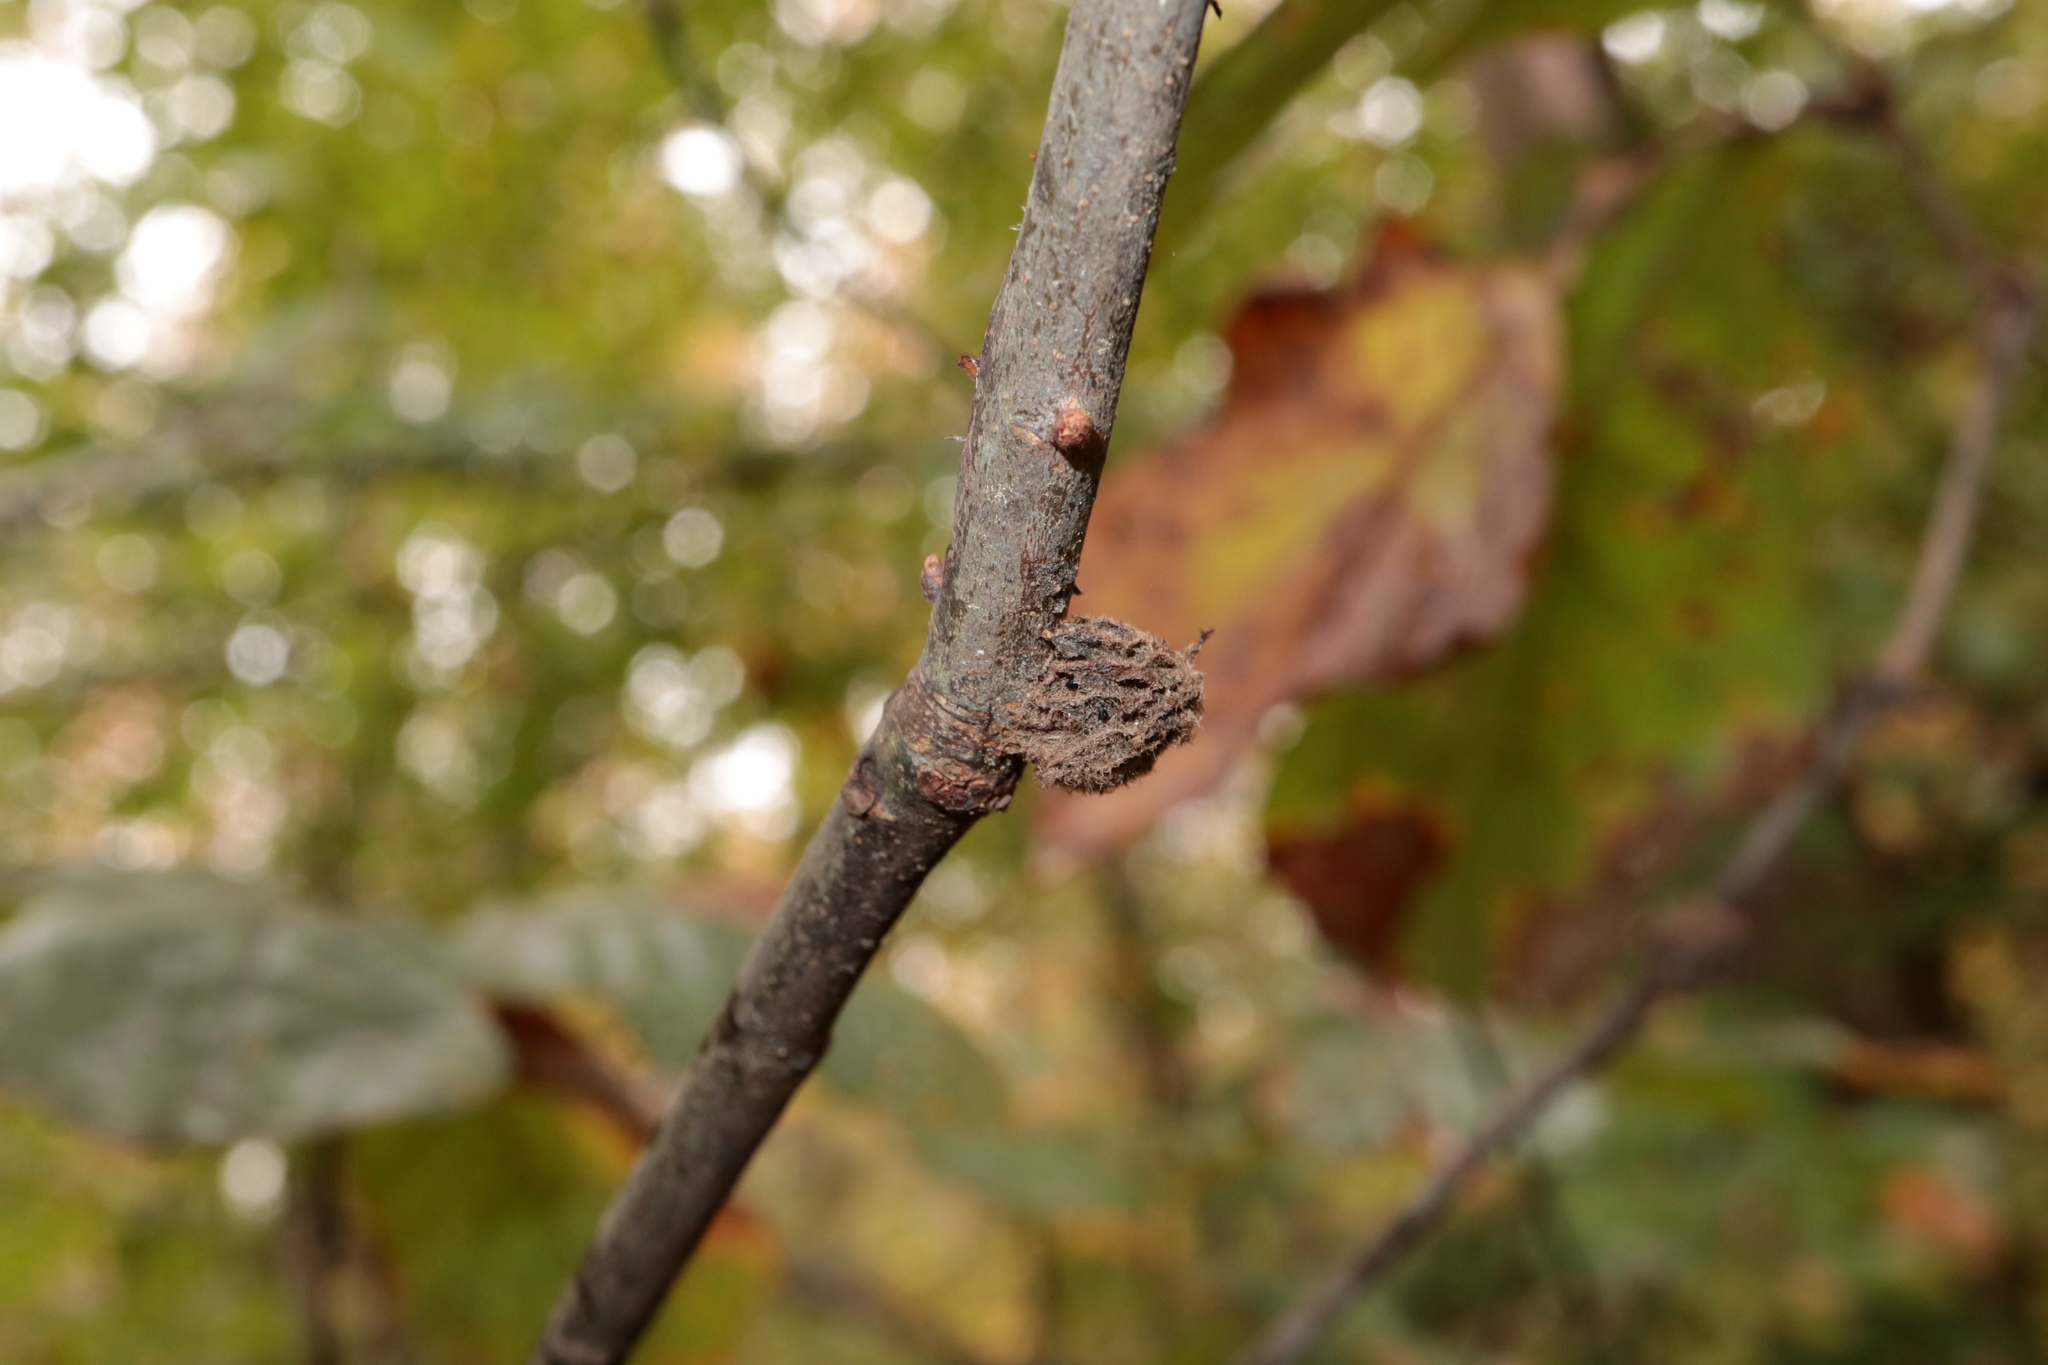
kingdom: Animalia
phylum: Arthropoda
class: Insecta
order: Hymenoptera
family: Cynipidae
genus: Dryocosmus
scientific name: Dryocosmus
